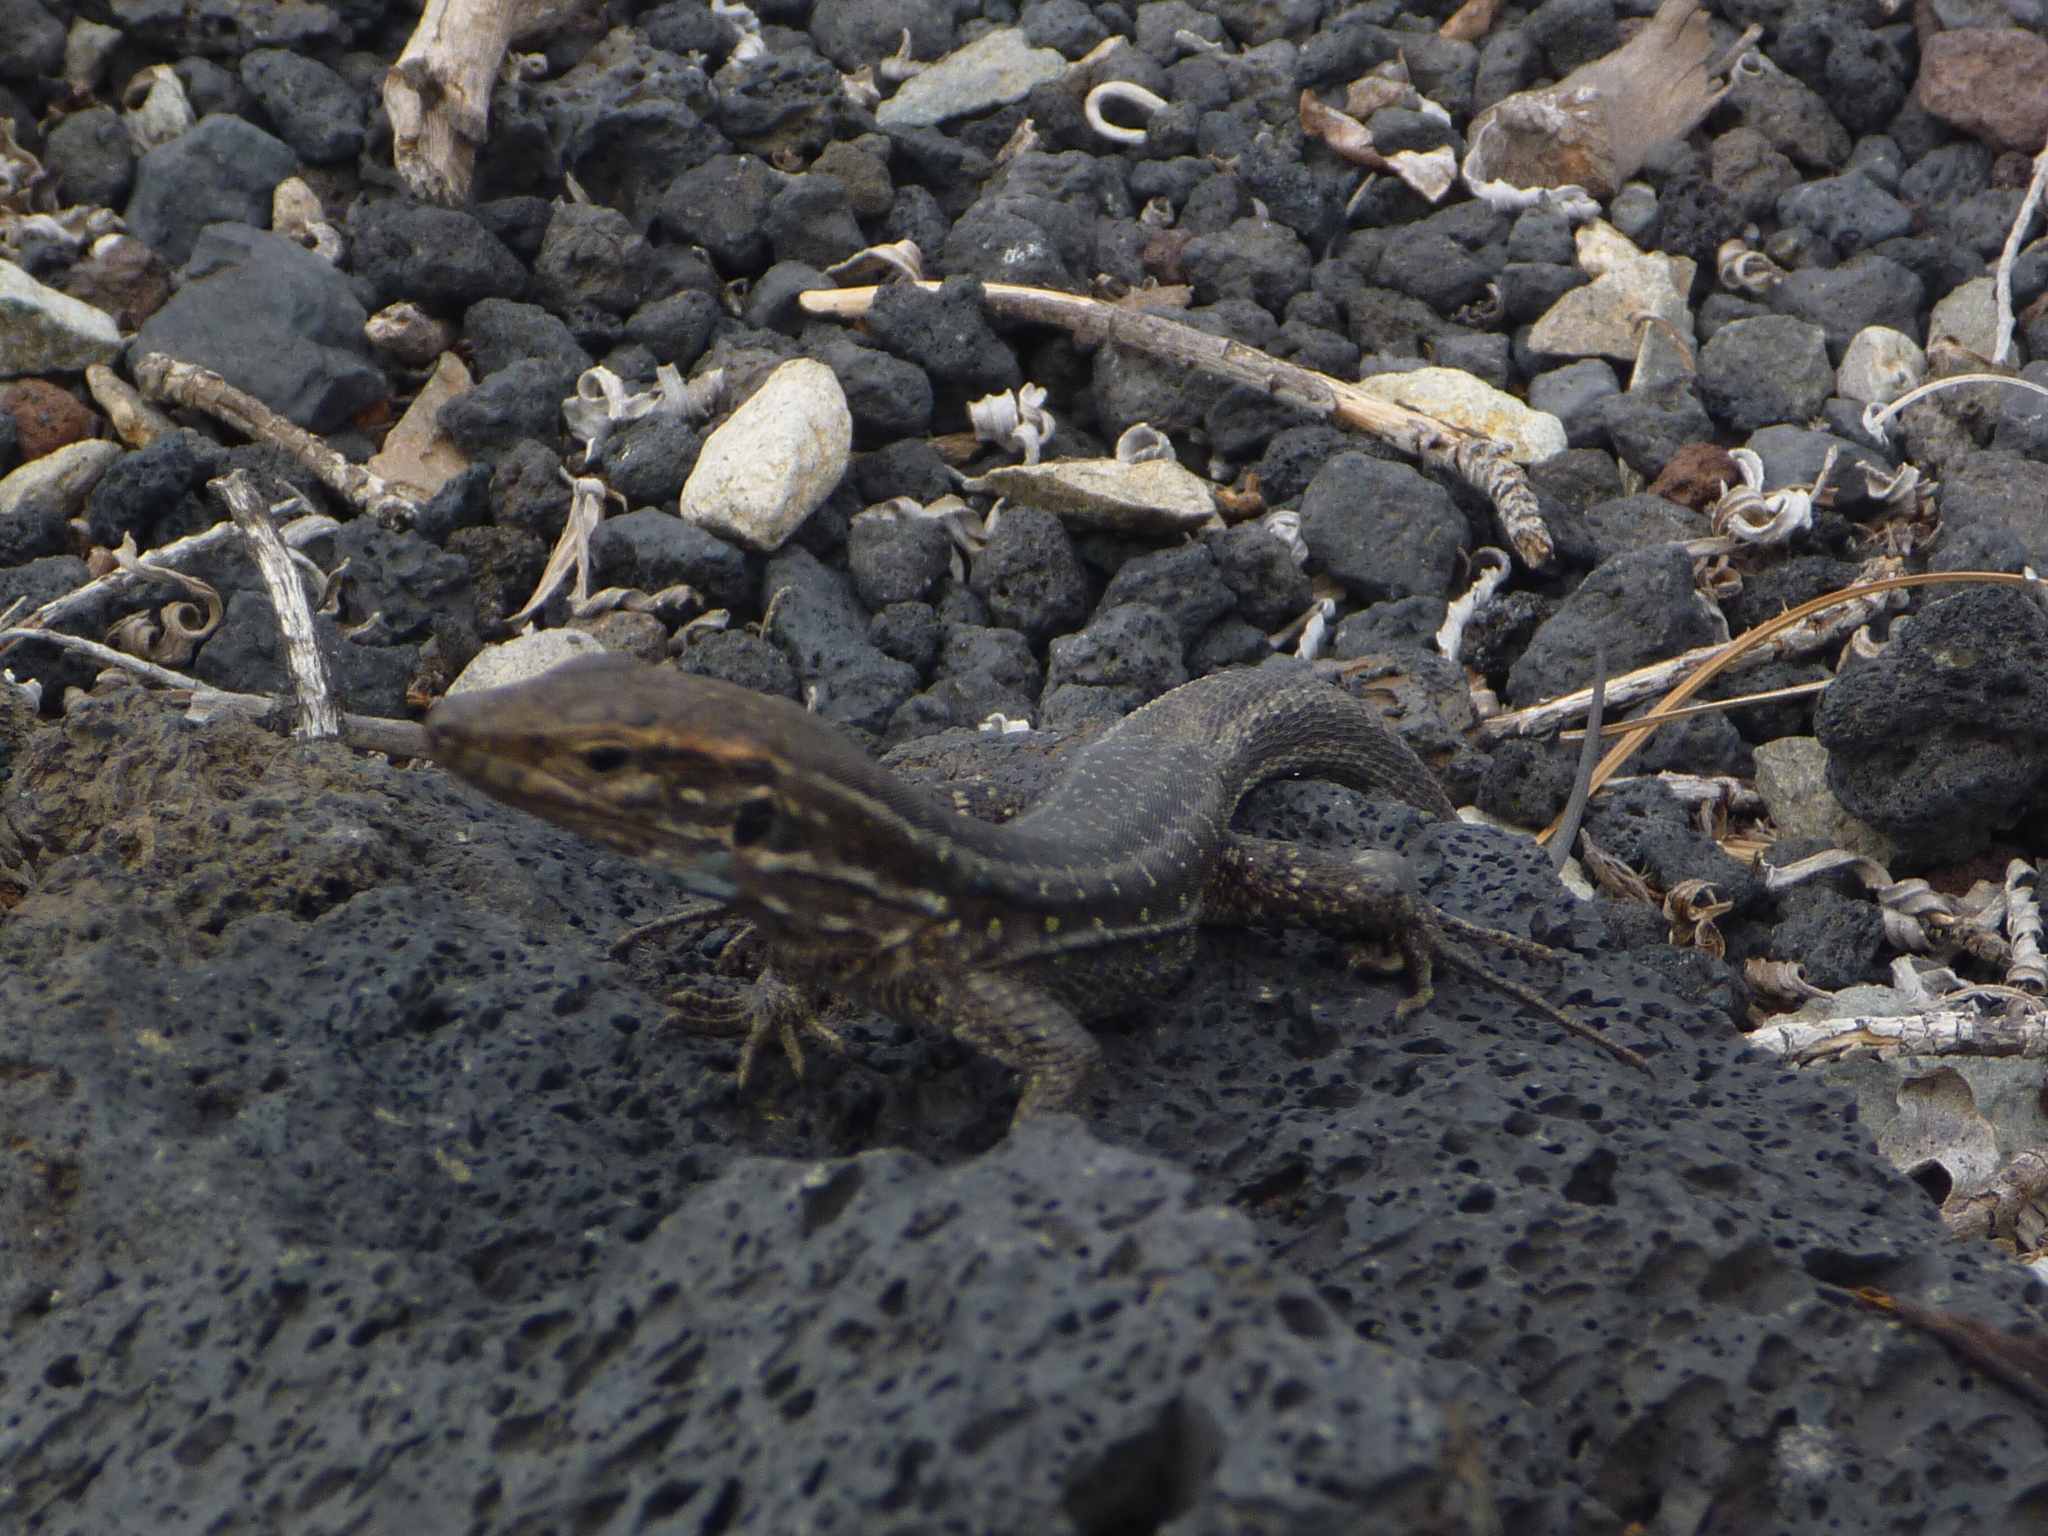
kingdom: Animalia
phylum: Chordata
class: Squamata
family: Lacertidae
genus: Gallotia
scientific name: Gallotia galloti
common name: Gallot's lizard
